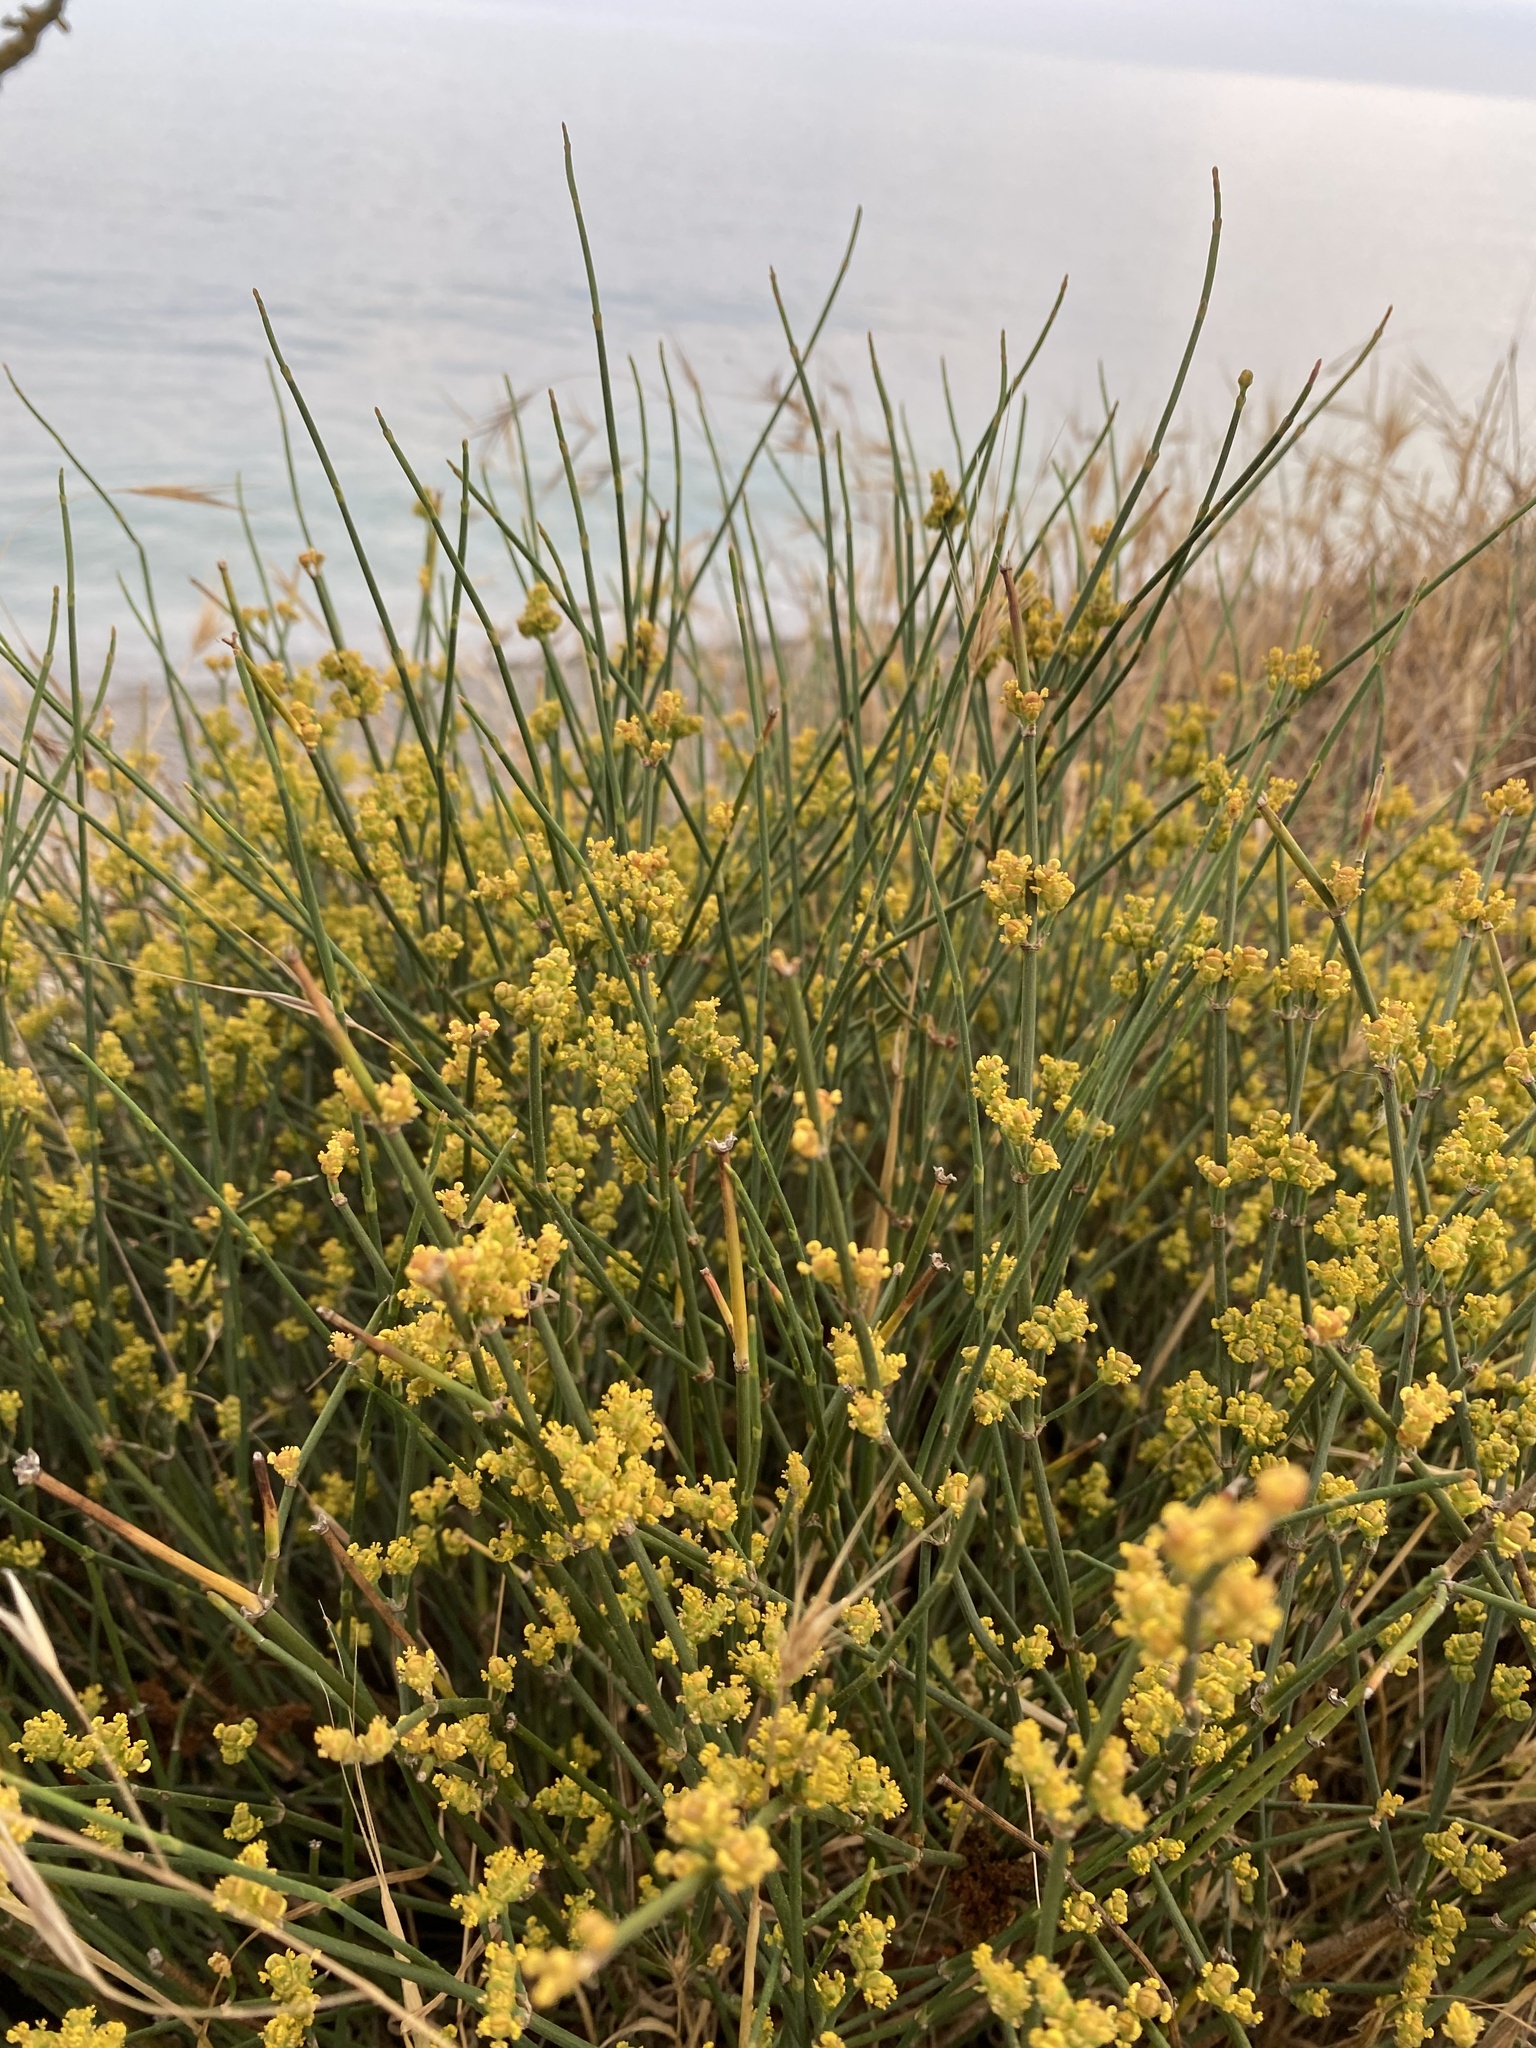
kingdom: Plantae
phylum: Tracheophyta
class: Gnetopsida
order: Ephedrales
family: Ephedraceae
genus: Ephedra
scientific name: Ephedra distachya
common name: Sea grape
